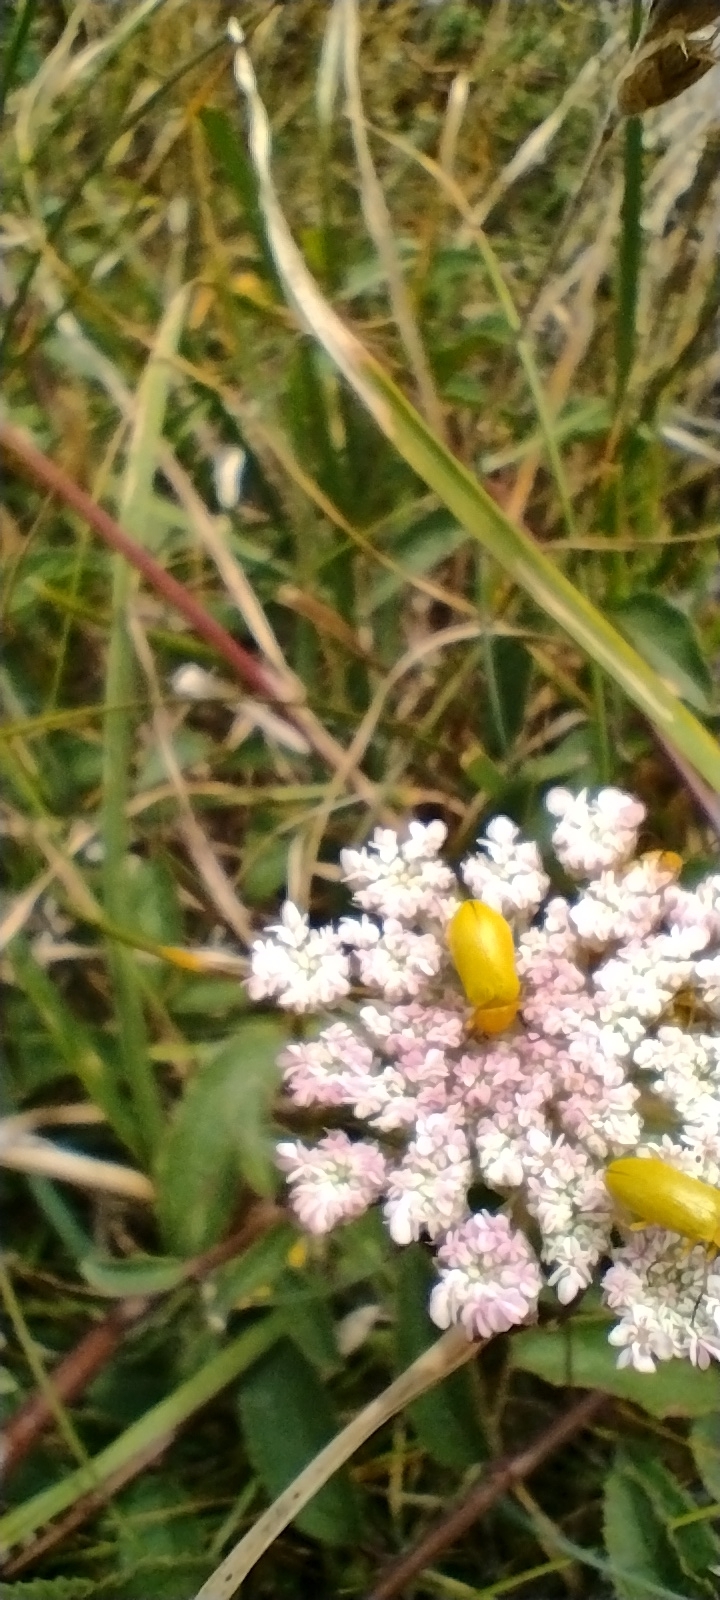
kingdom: Animalia
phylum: Arthropoda
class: Insecta
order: Coleoptera
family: Tenebrionidae
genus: Cteniopus
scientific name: Cteniopus sulphureus
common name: Sulphur beetle
